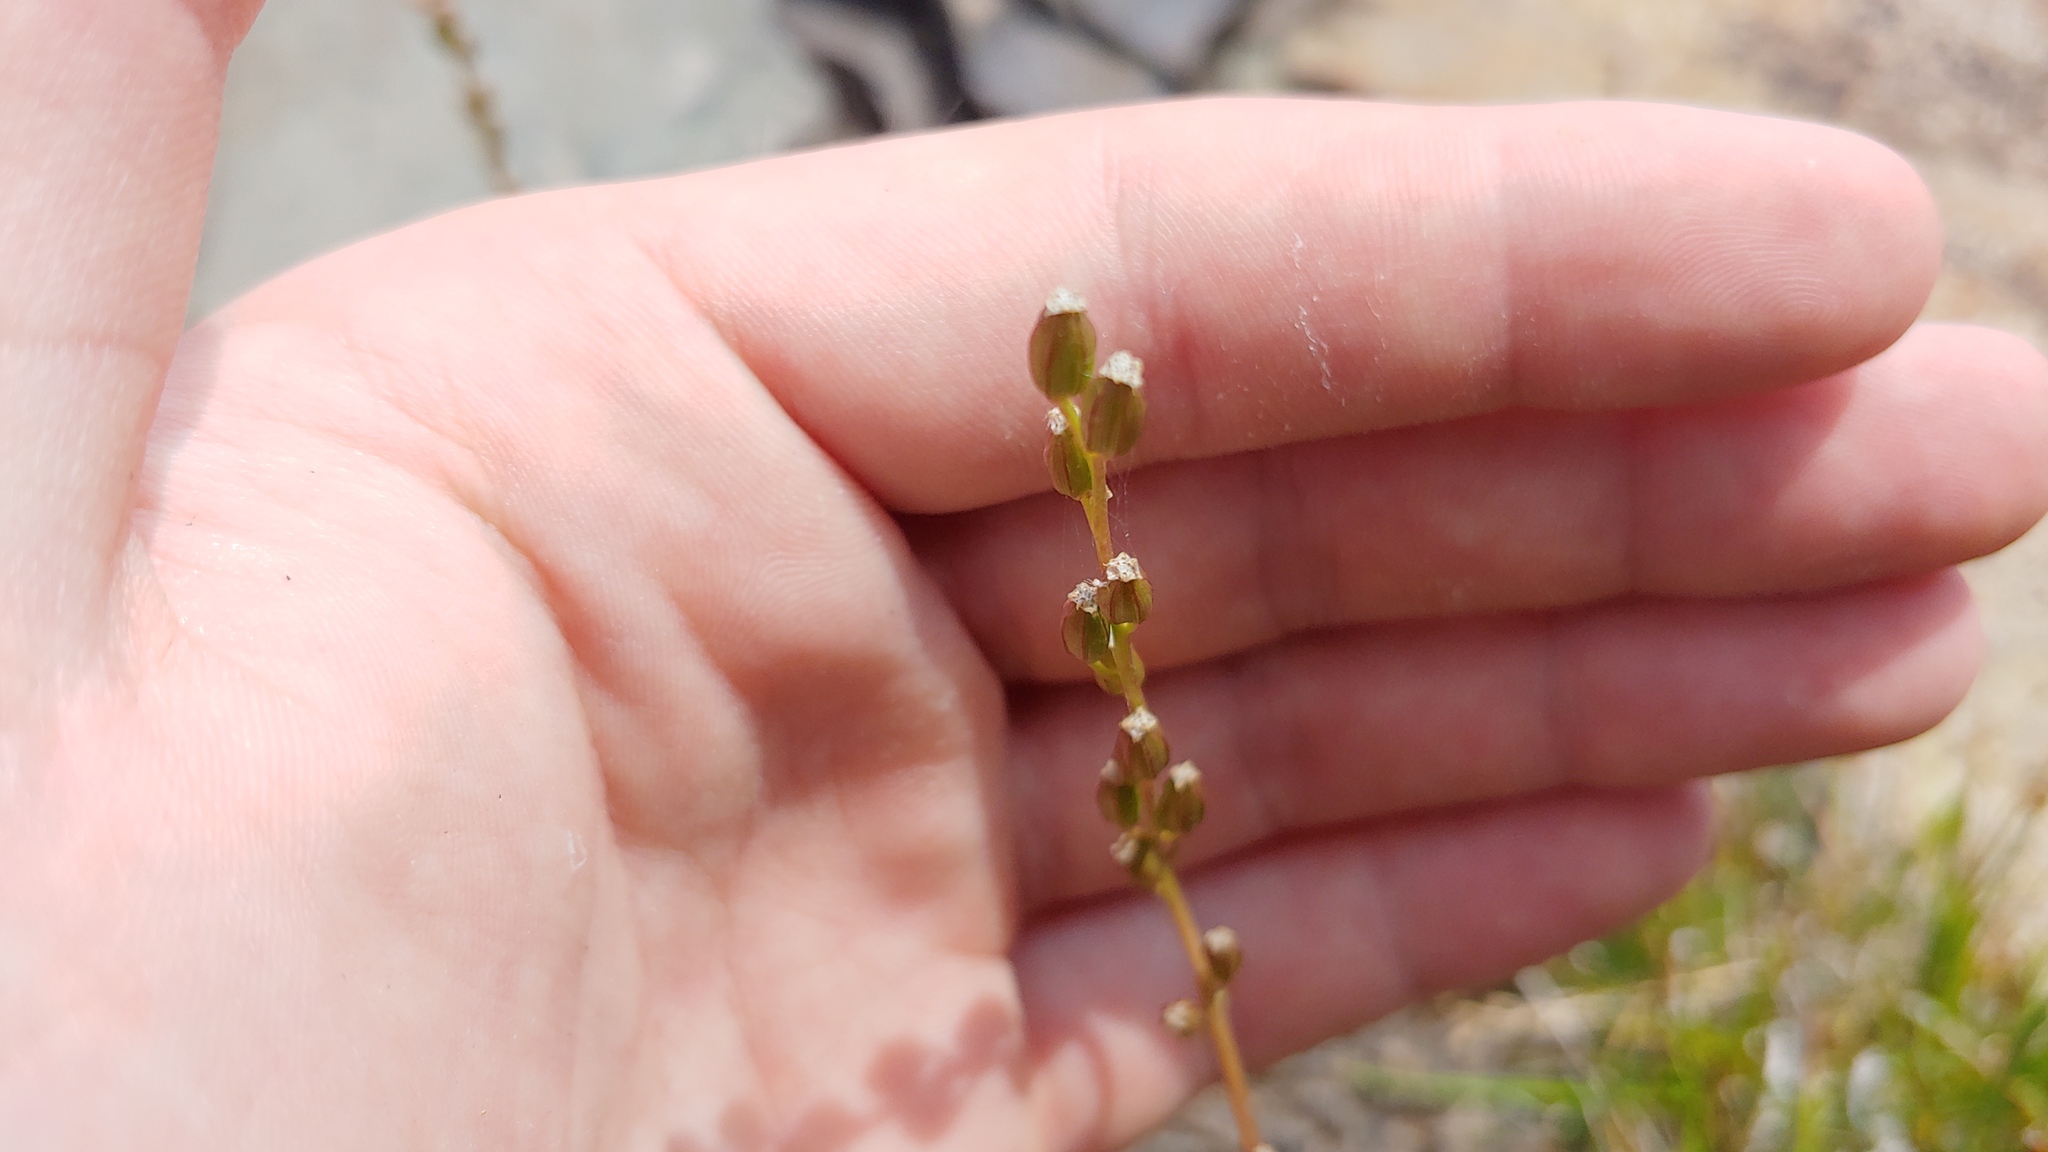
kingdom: Plantae
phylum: Tracheophyta
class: Liliopsida
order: Alismatales
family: Juncaginaceae
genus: Triglochin
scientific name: Triglochin maritima
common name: Sea arrowgrass
